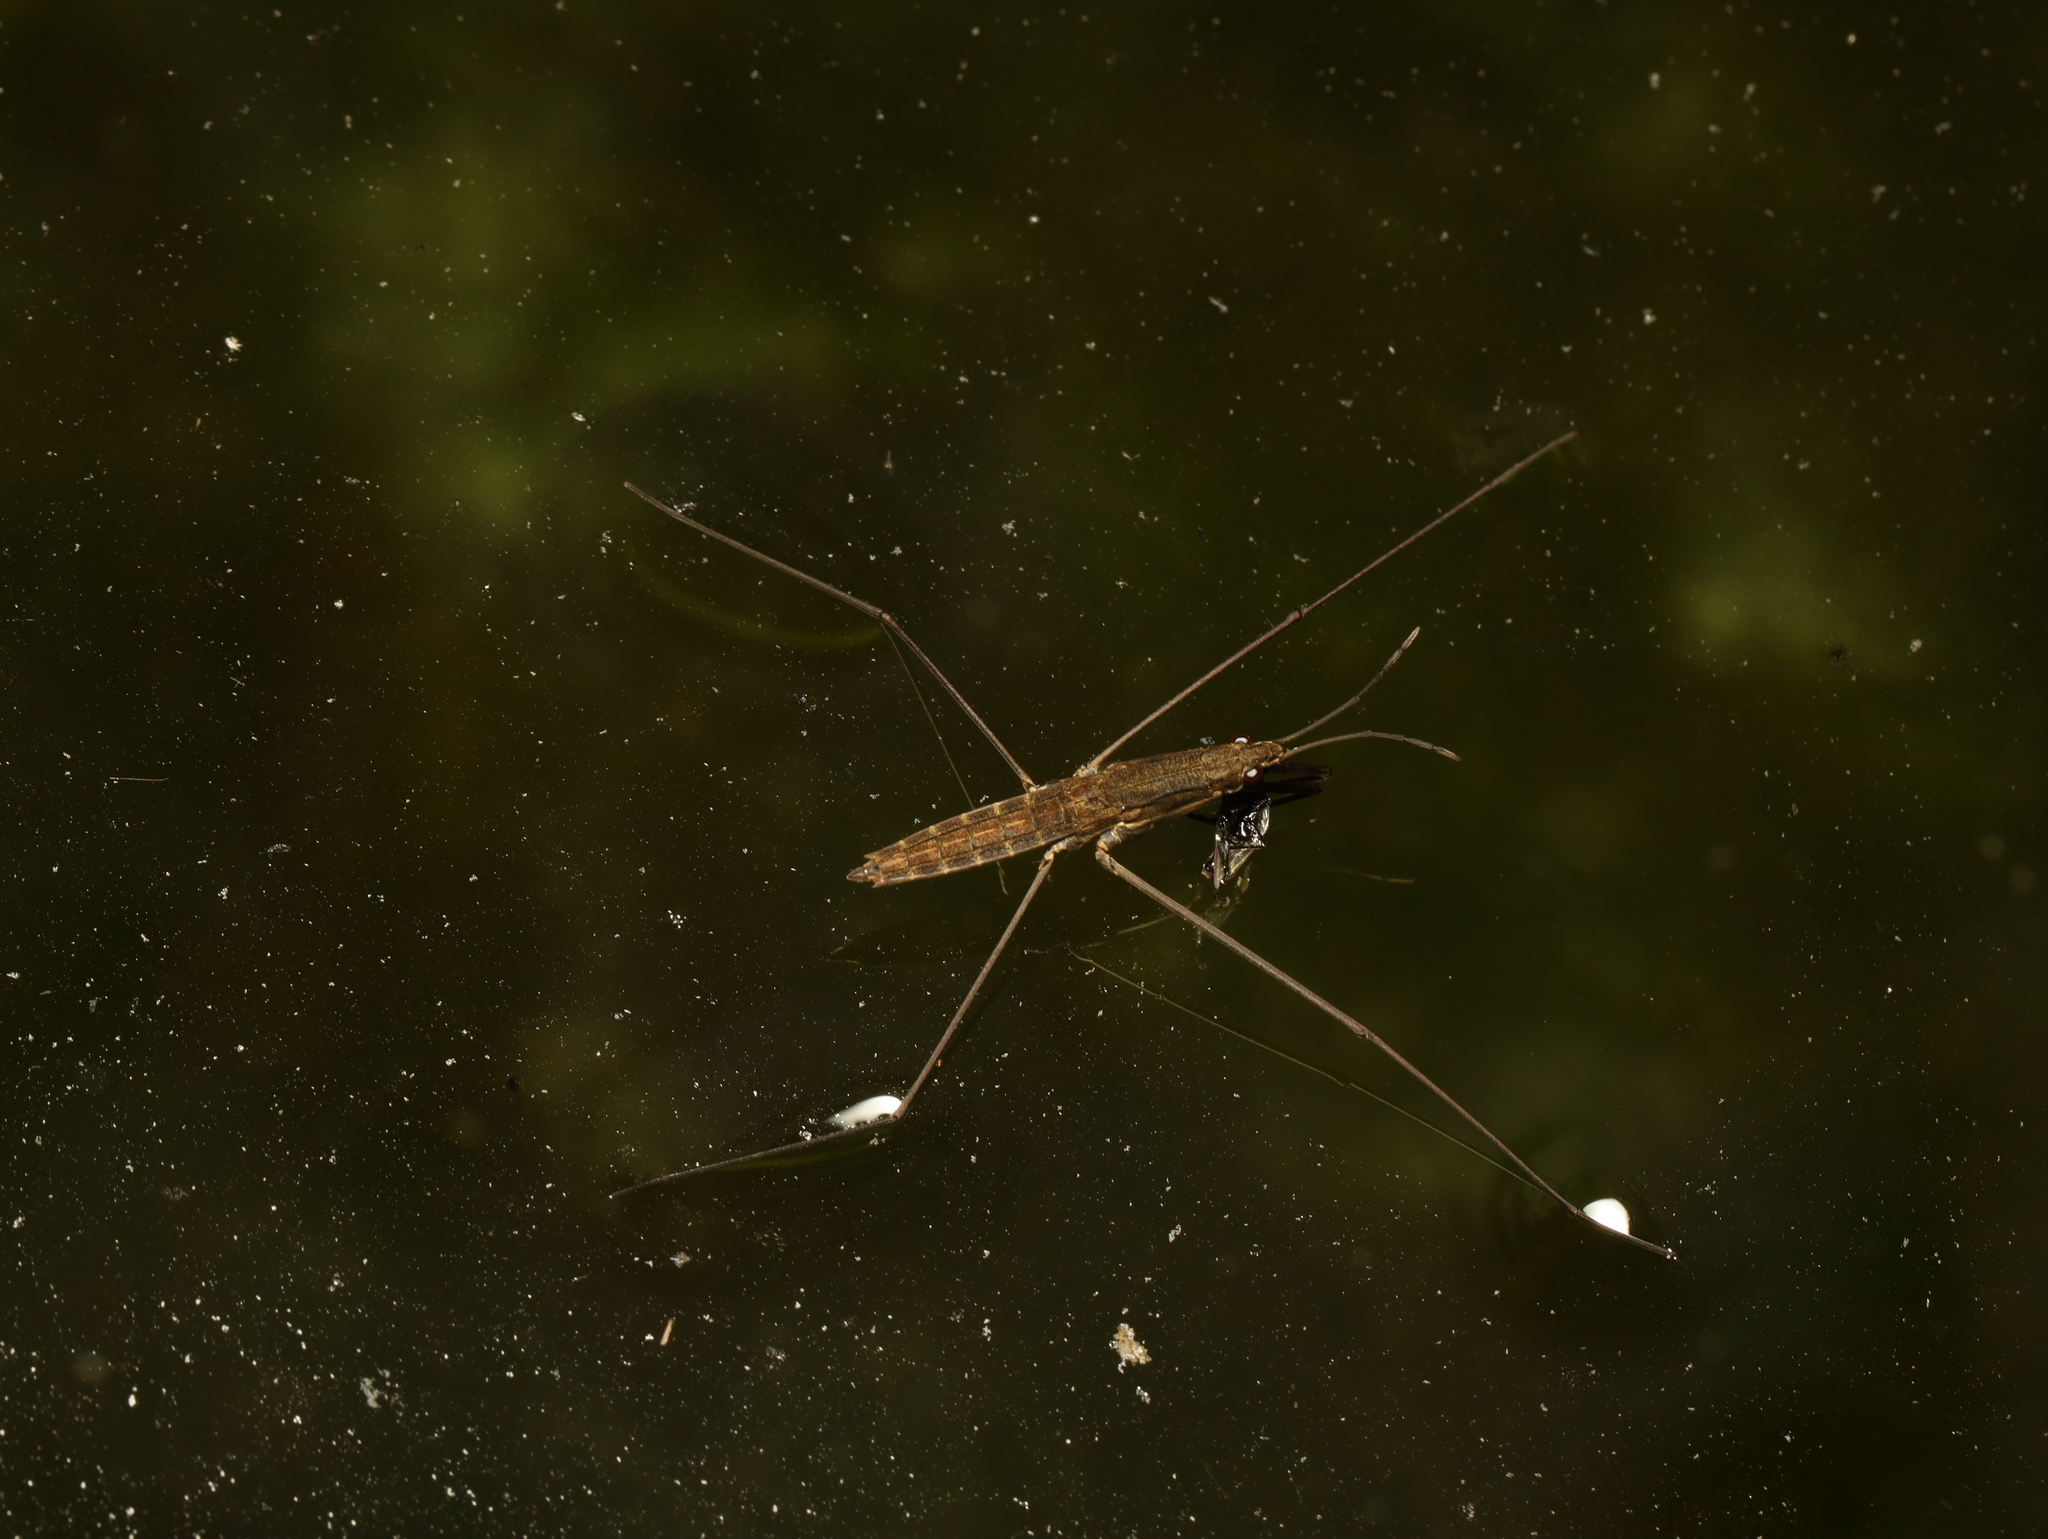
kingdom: Animalia
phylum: Arthropoda
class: Insecta
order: Hemiptera
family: Gerridae
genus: Aquarius
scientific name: Aquarius najas
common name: River skater
